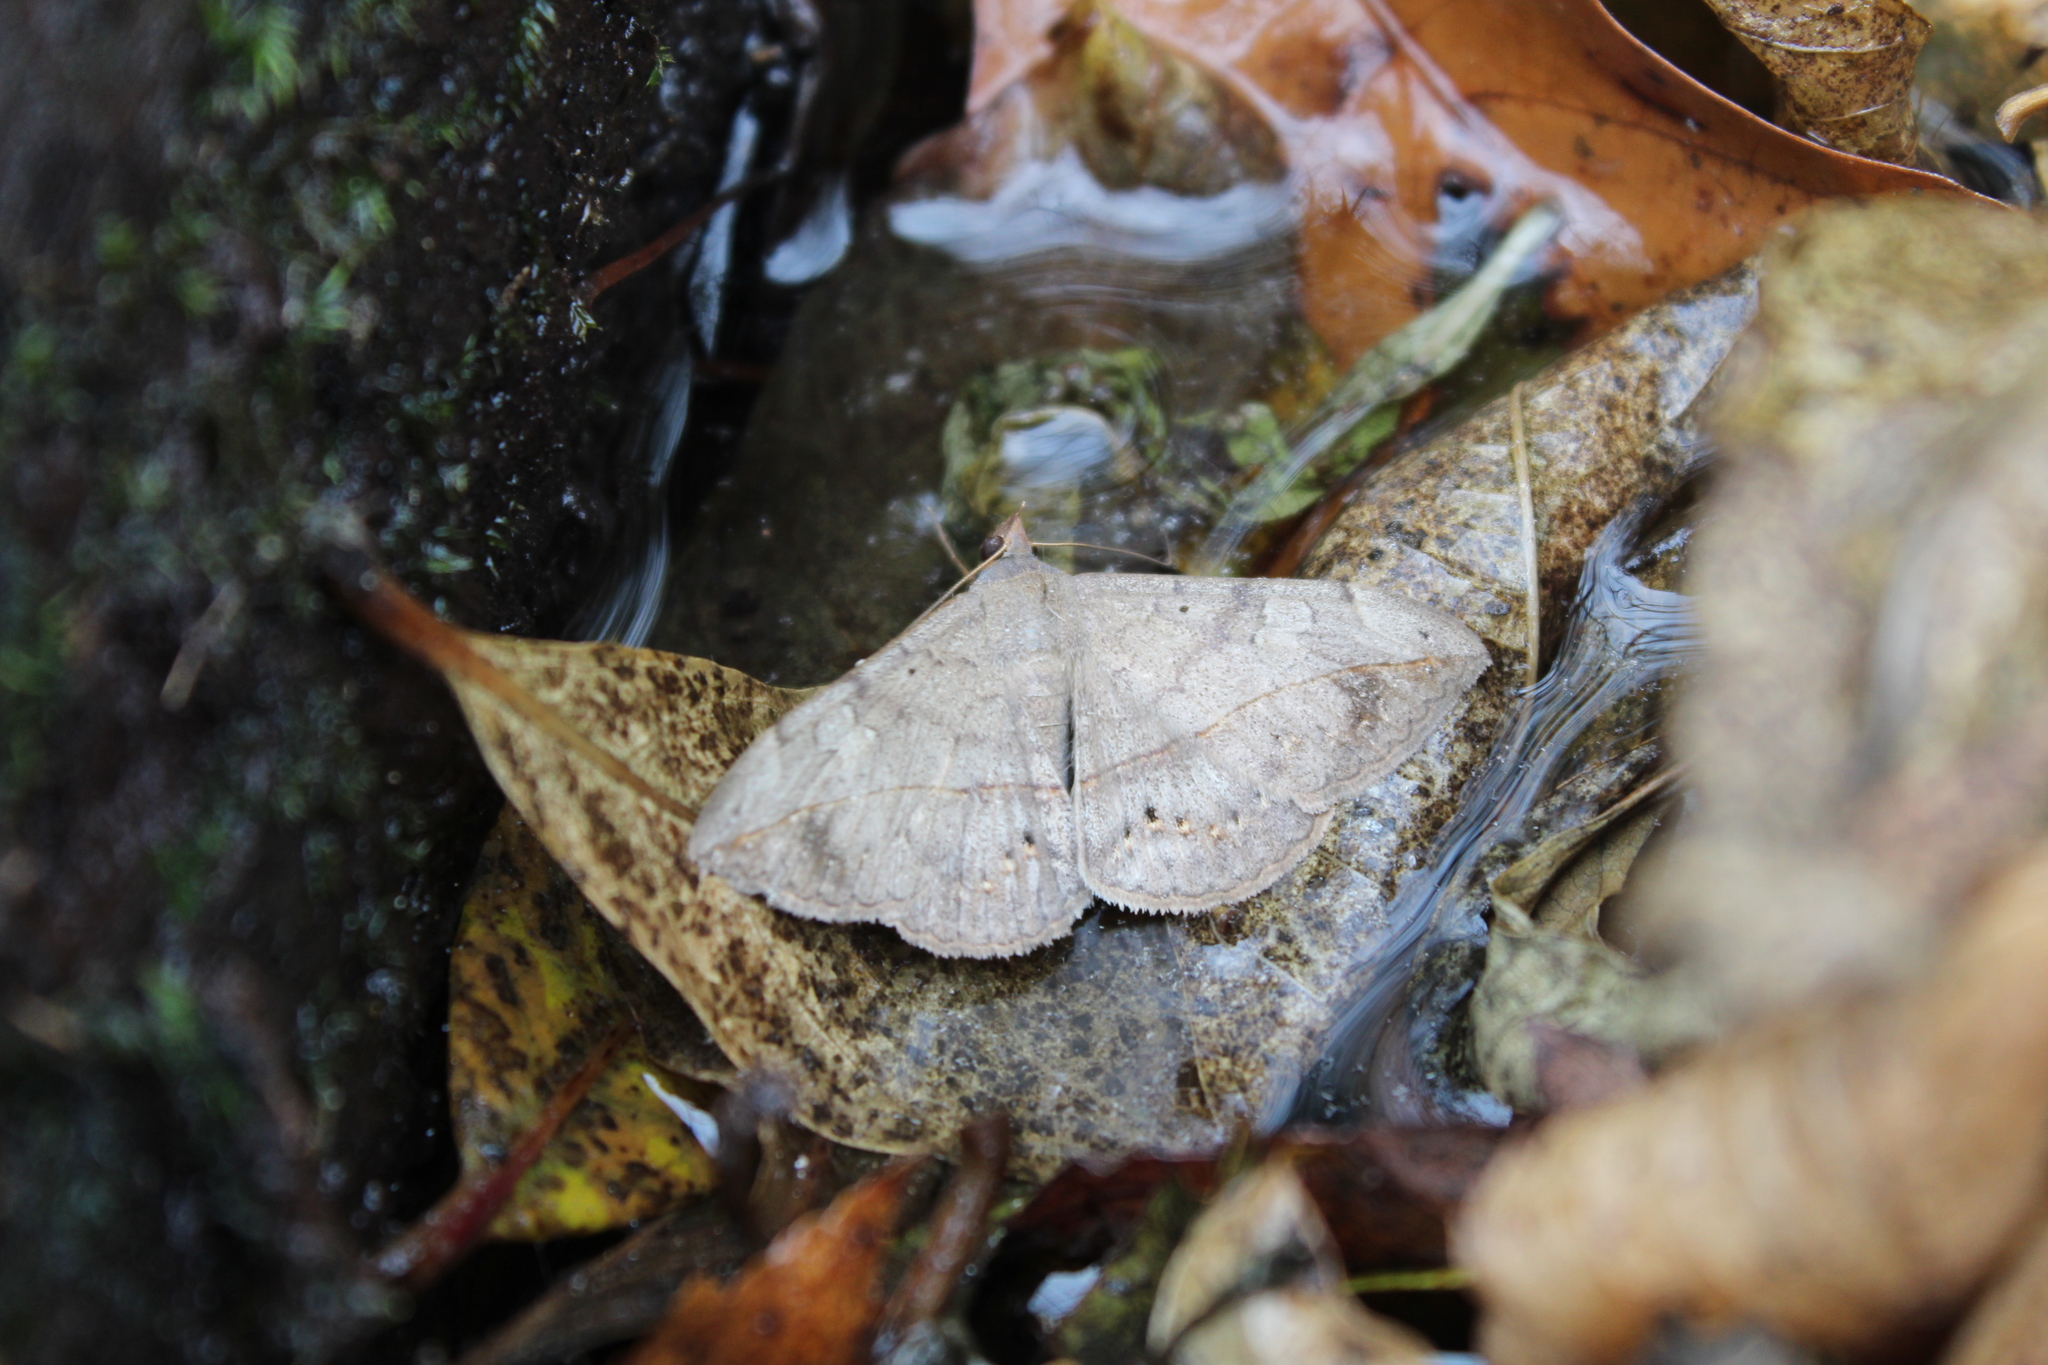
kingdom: Animalia
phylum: Arthropoda
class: Insecta
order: Lepidoptera
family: Erebidae
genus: Anticarsia
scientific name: Anticarsia gemmatalis
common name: Cutworm moth
